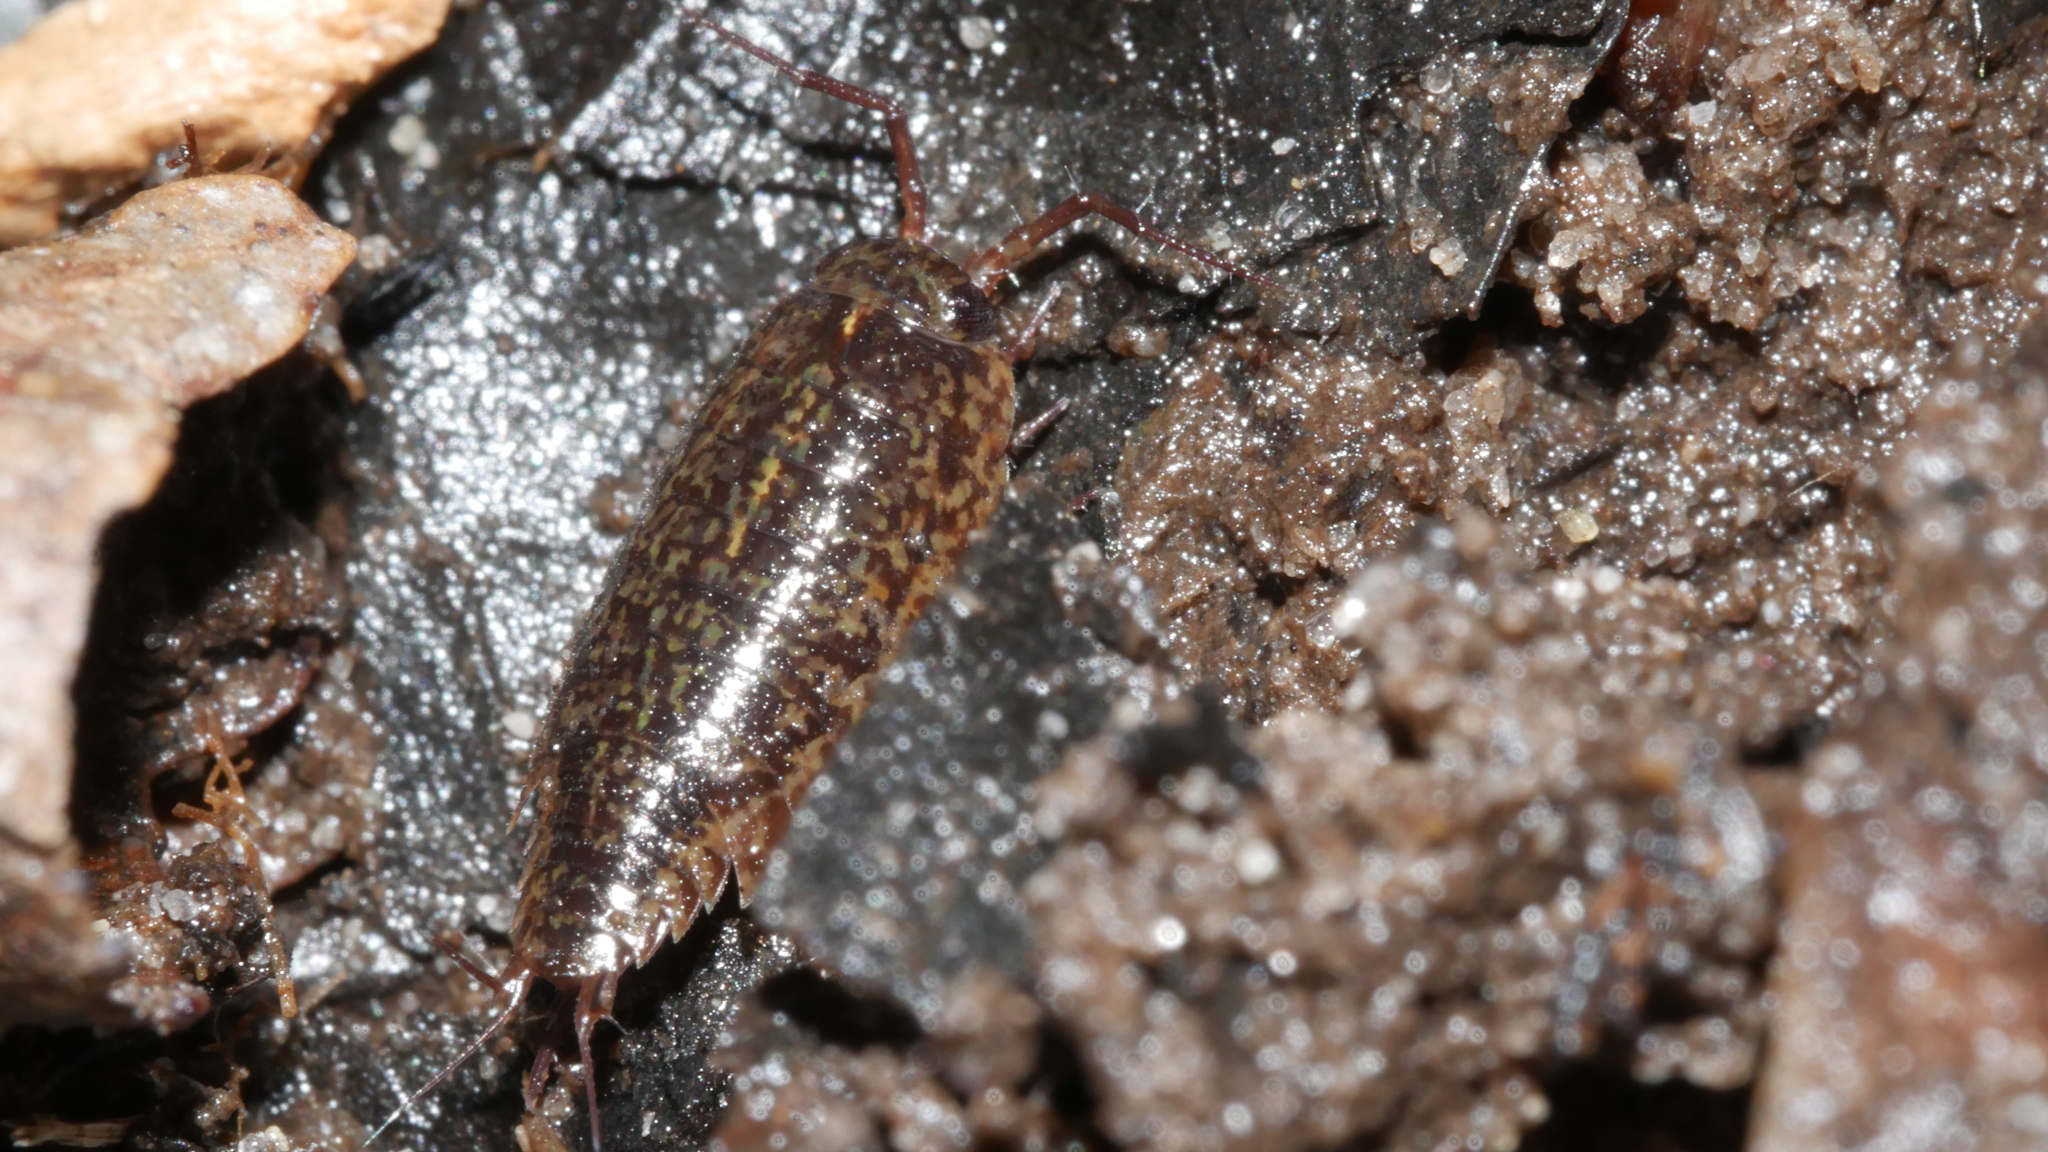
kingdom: Animalia
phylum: Arthropoda
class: Malacostraca
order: Isopoda
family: Ligiidae
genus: Ligidium
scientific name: Ligidium elrodii
